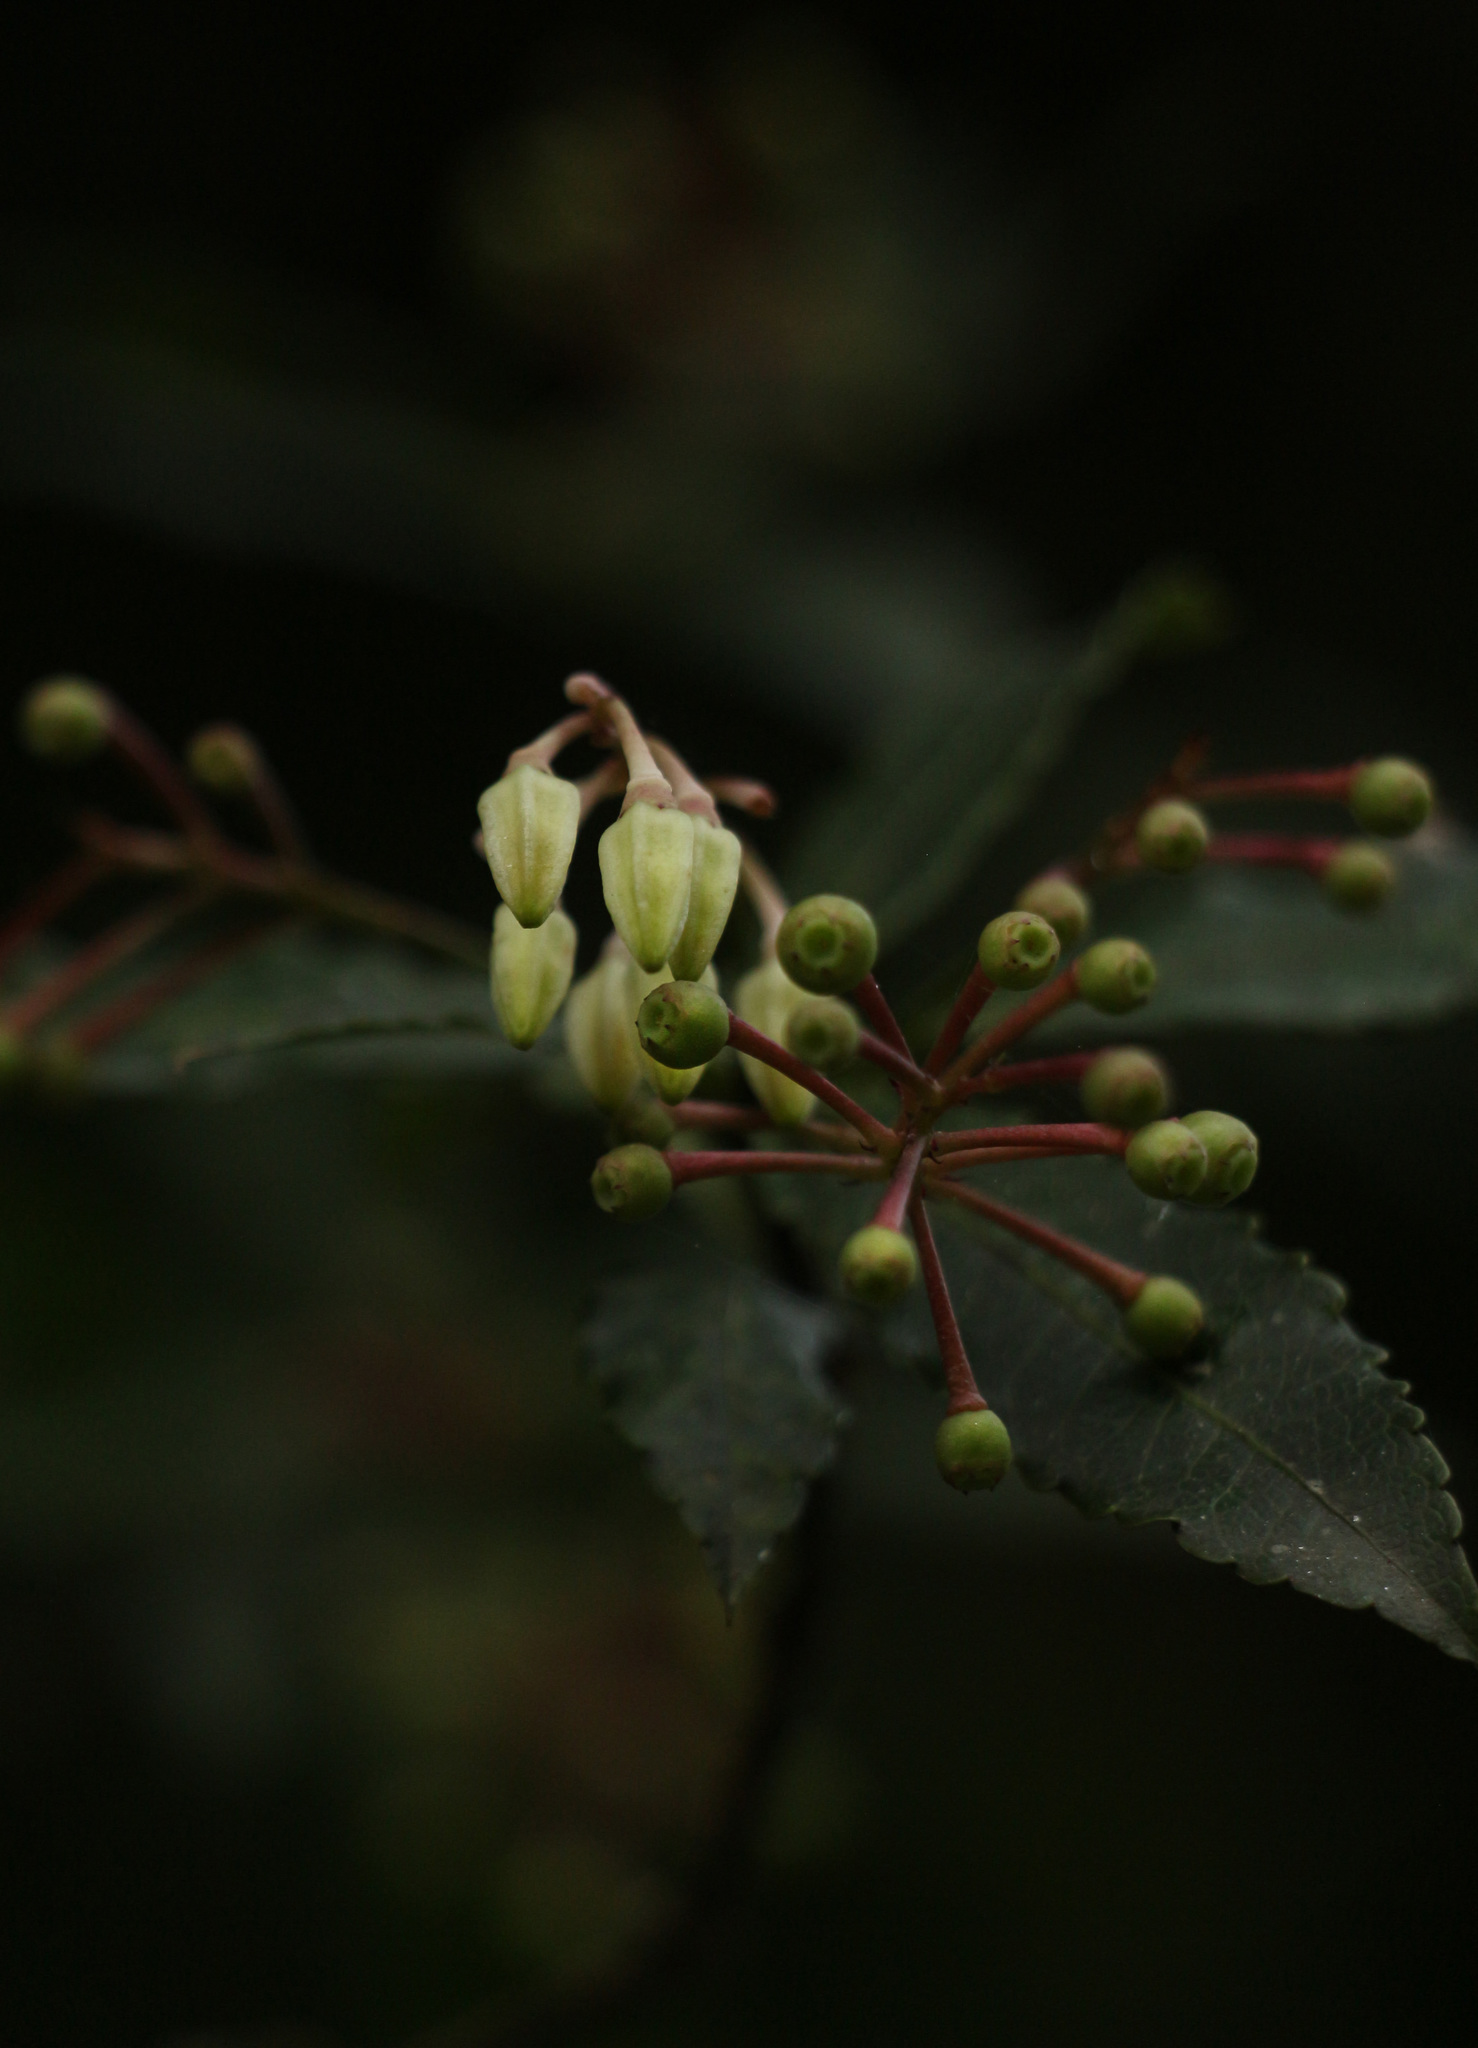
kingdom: Plantae
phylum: Tracheophyta
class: Magnoliopsida
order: Ericales
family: Ericaceae
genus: Vaccinium
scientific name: Vaccinium vacciniaceum
